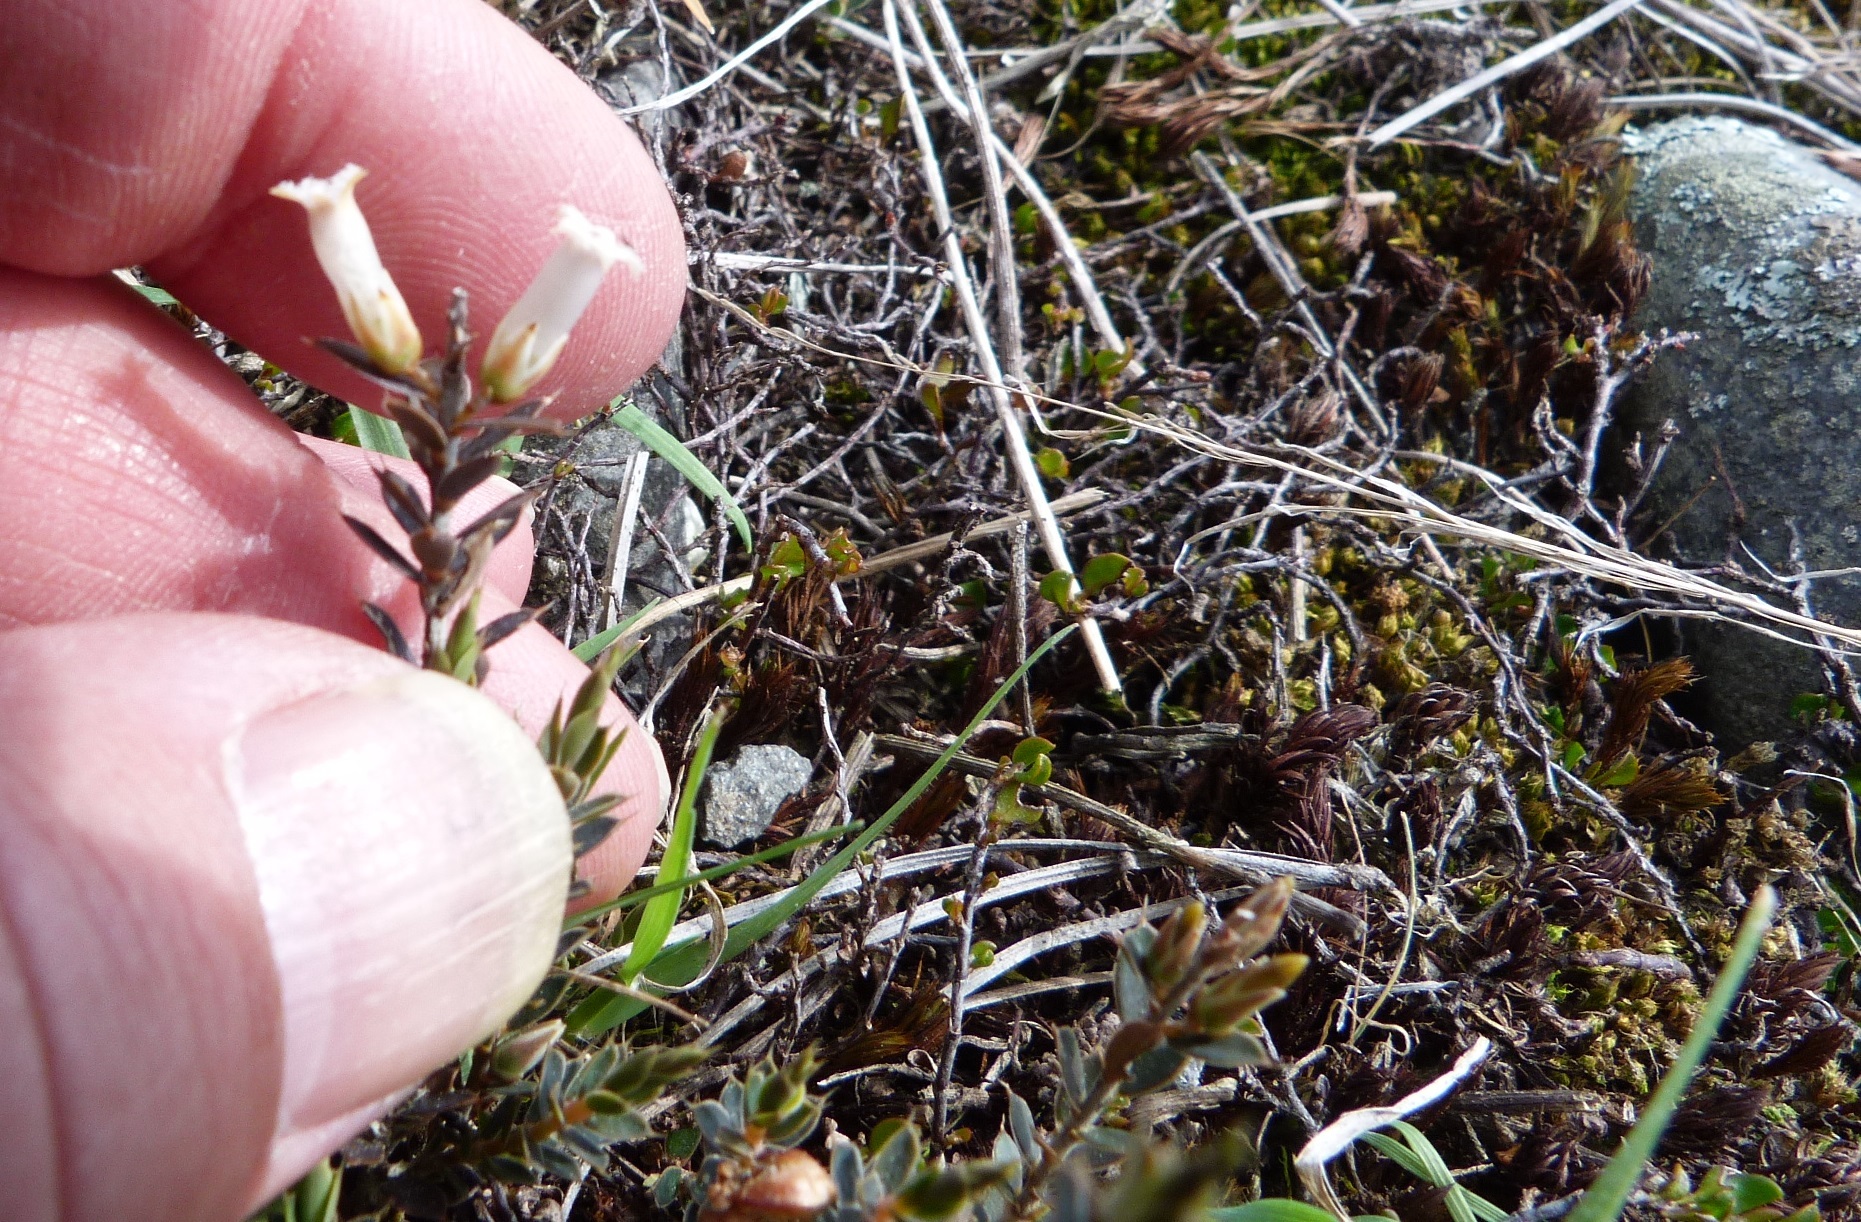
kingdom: Plantae
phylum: Tracheophyta
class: Magnoliopsida
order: Ericales
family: Ericaceae
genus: Styphelia
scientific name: Styphelia nesophila
